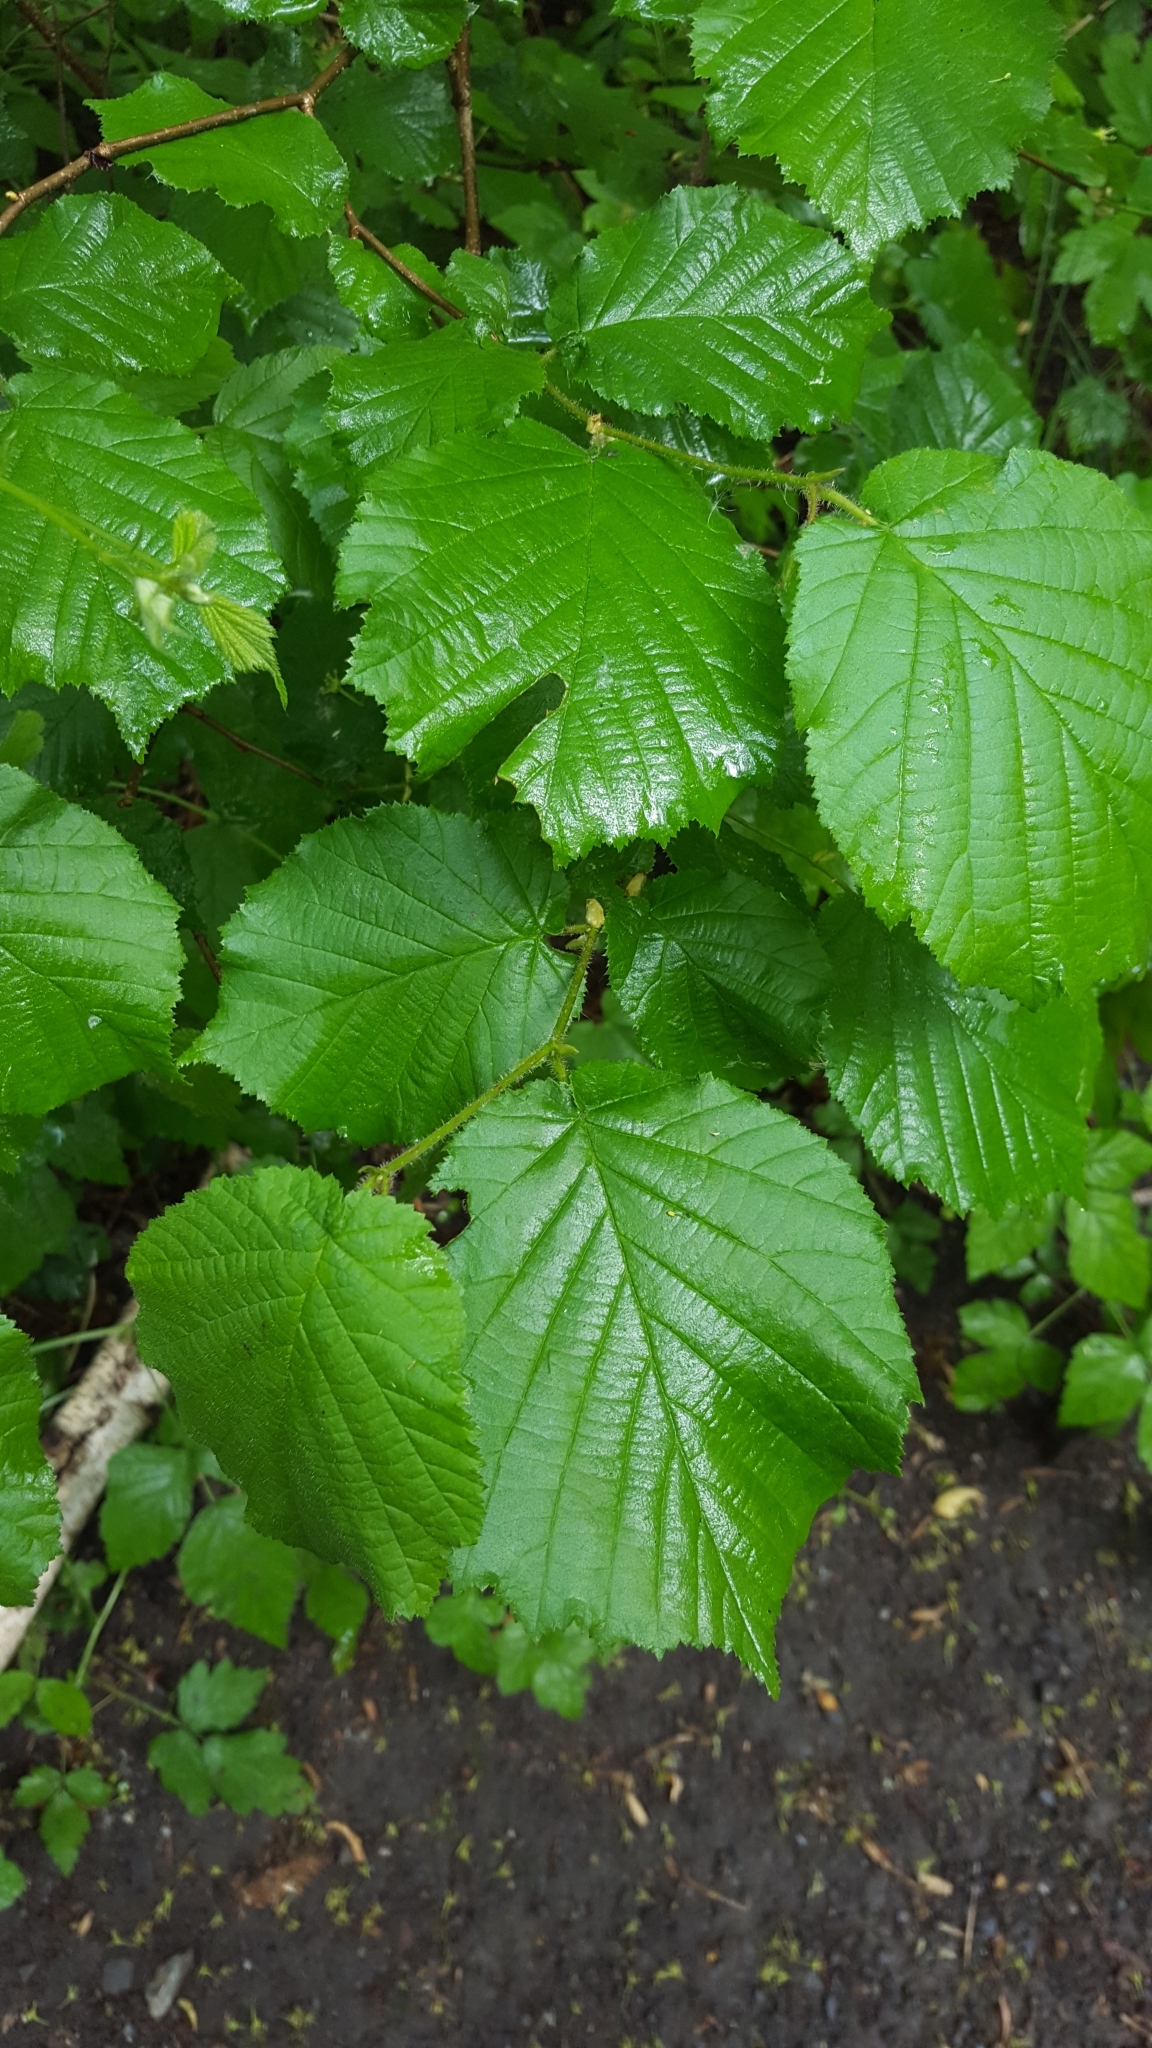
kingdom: Plantae
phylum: Tracheophyta
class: Magnoliopsida
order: Fagales
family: Betulaceae
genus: Corylus
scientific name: Corylus avellana
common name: European hazel
